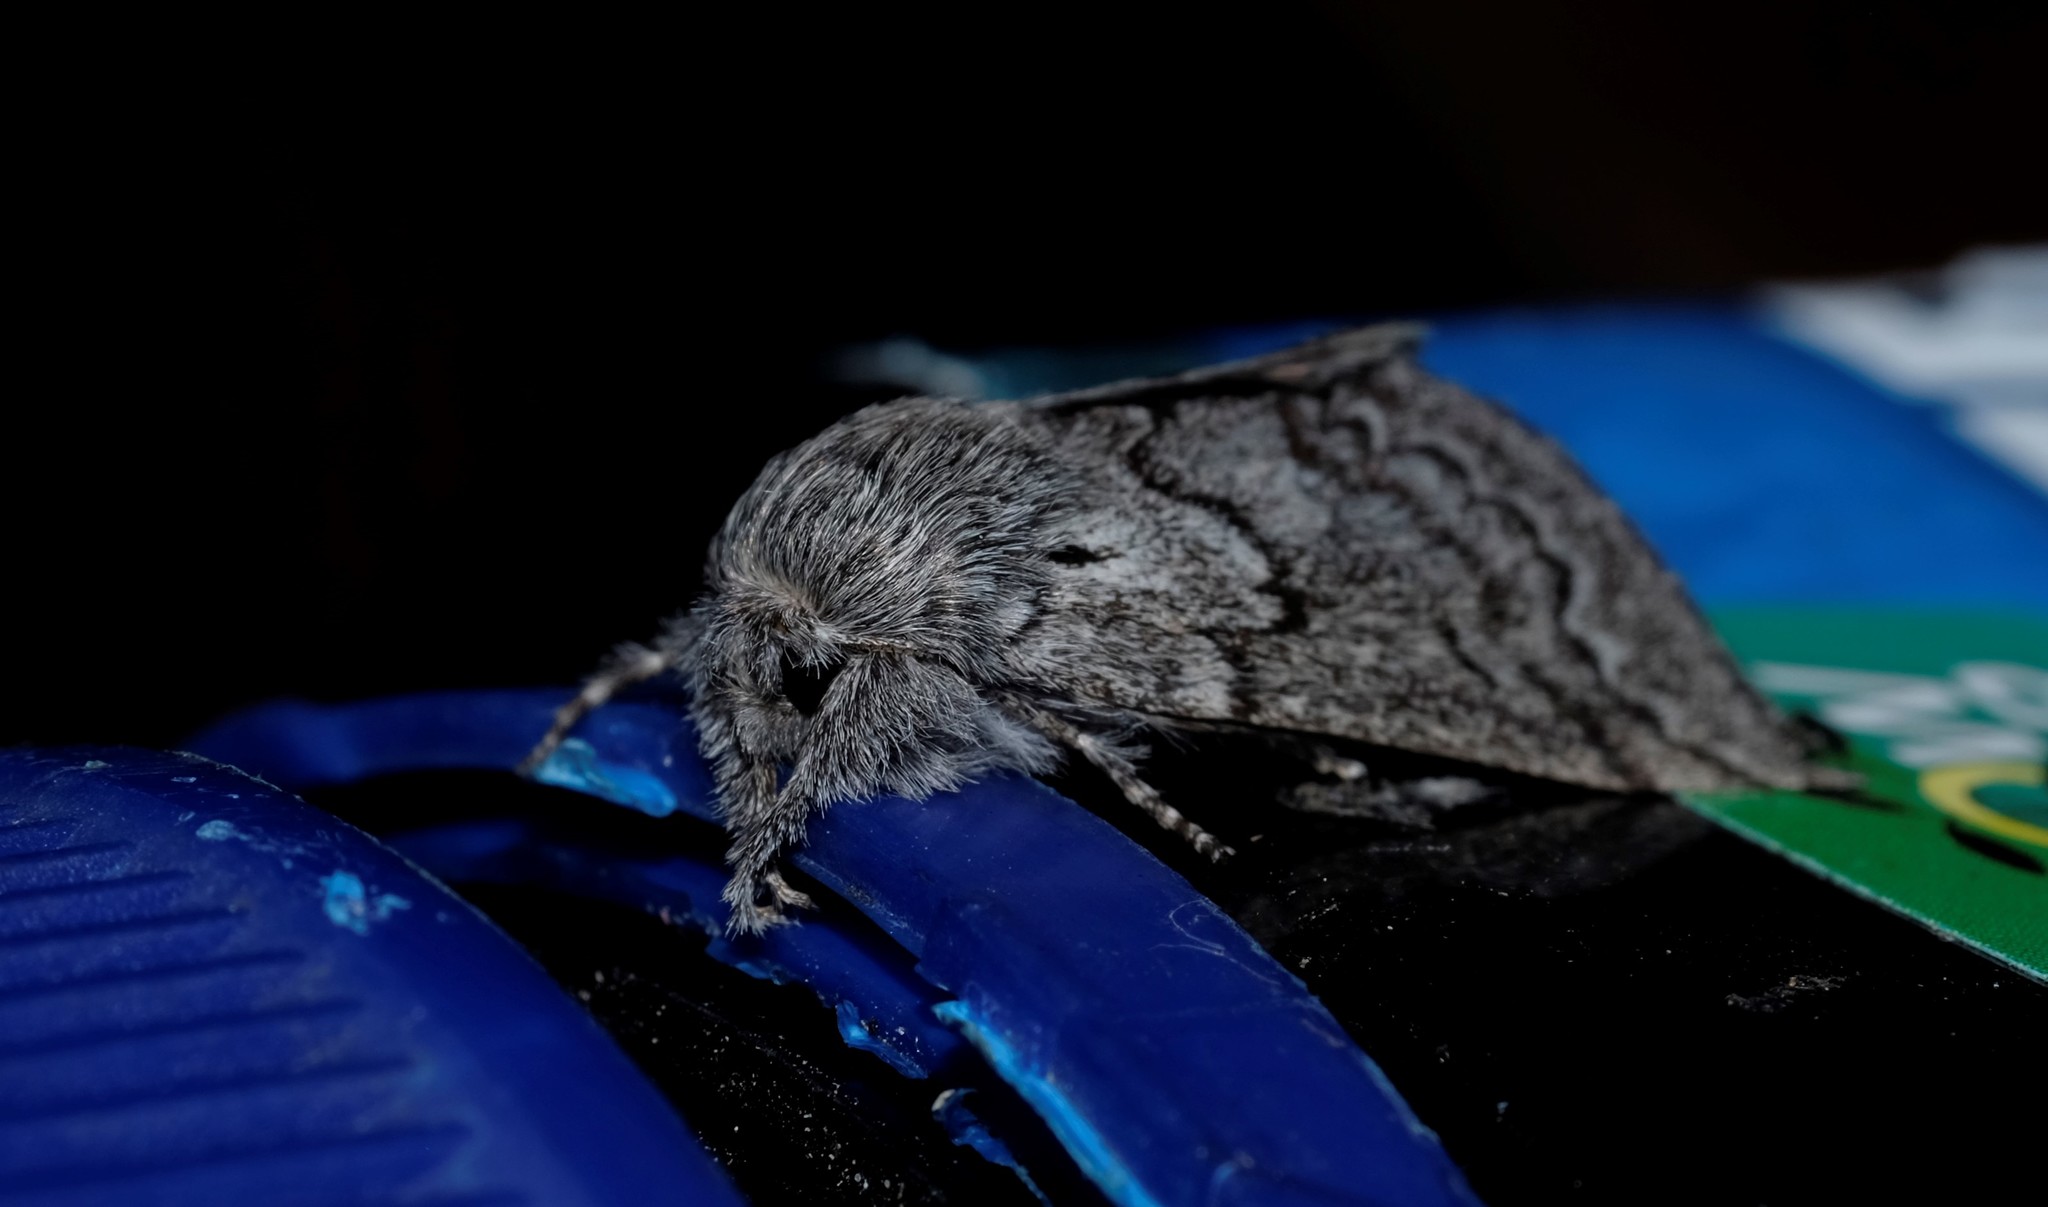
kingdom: Animalia
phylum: Arthropoda
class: Insecta
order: Lepidoptera
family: Anthelidae
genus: Munychryia
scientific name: Munychryia senicula
